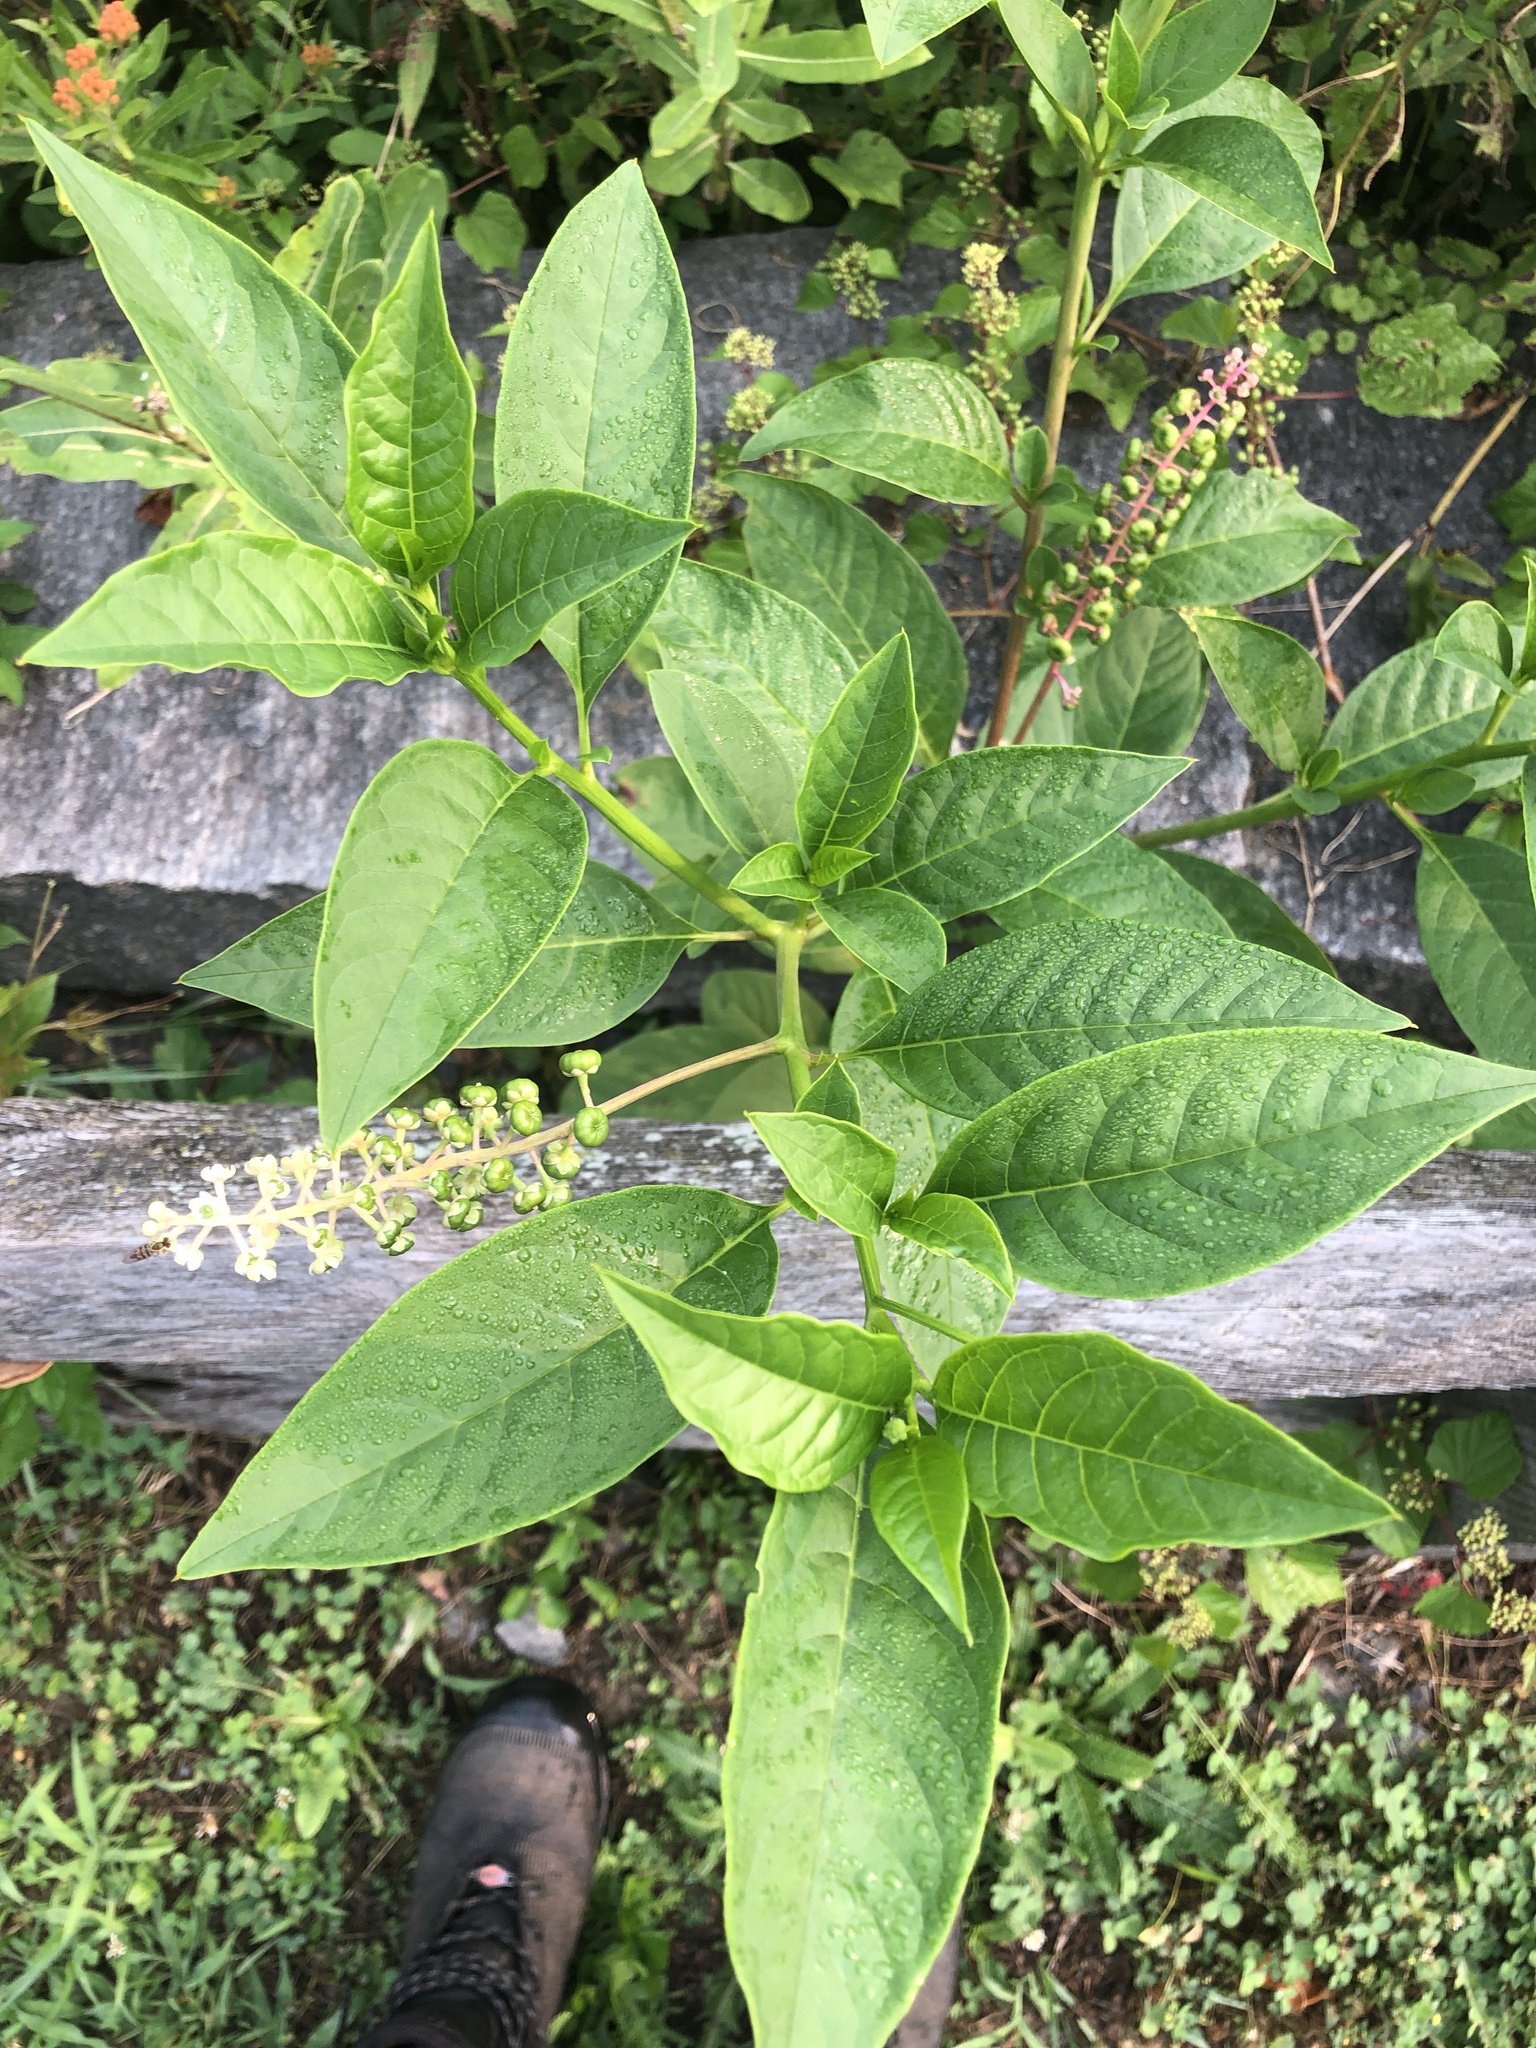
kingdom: Plantae
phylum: Tracheophyta
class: Magnoliopsida
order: Caryophyllales
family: Phytolaccaceae
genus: Phytolacca
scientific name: Phytolacca americana
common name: American pokeweed
